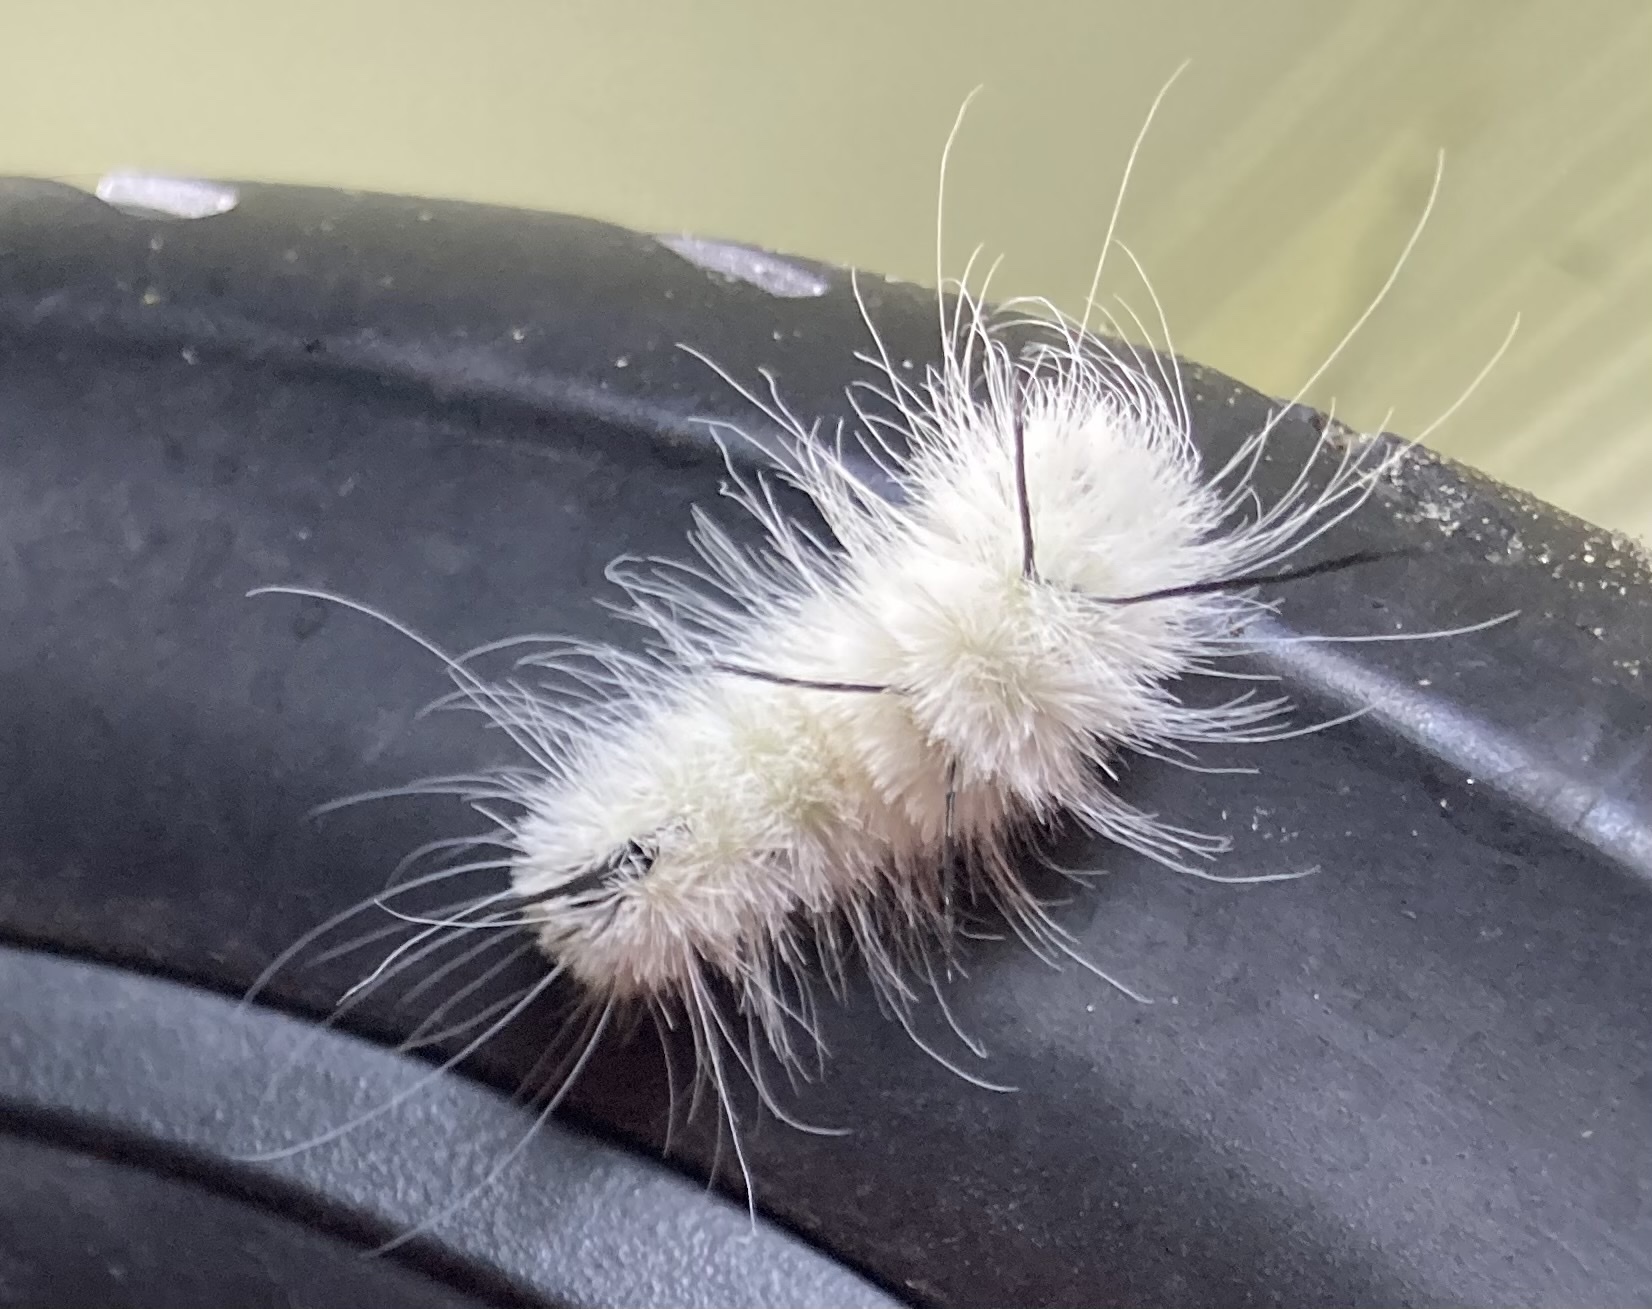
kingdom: Animalia
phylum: Arthropoda
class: Insecta
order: Lepidoptera
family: Noctuidae
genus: Acronicta
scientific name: Acronicta americana
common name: American dagger
